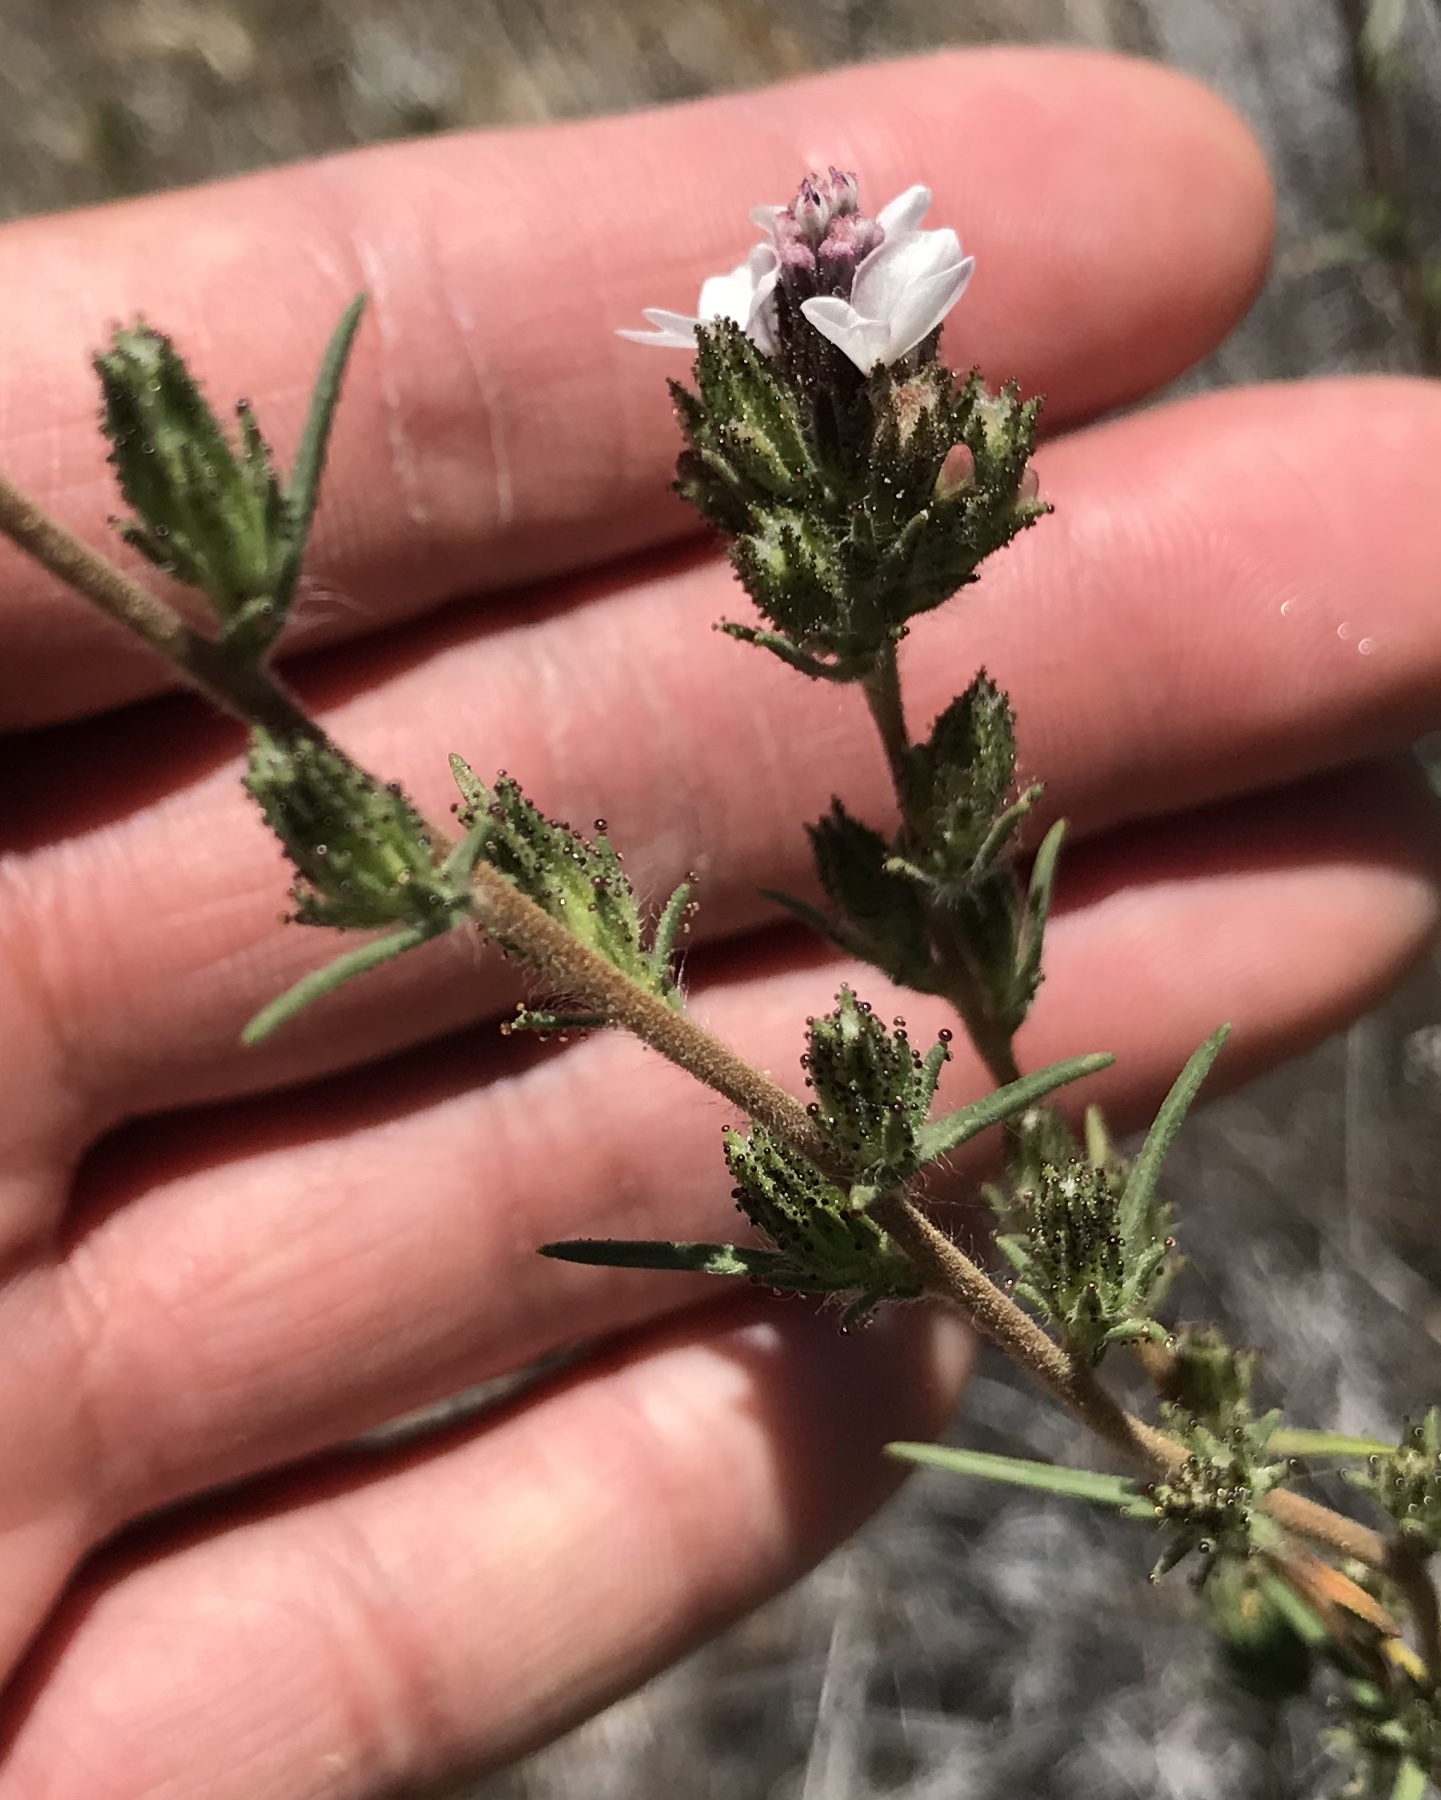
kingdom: Plantae
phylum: Tracheophyta
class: Magnoliopsida
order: Asterales
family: Asteraceae
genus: Calycadenia
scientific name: Calycadenia multiglandulosa
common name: Sticky calycadenia
